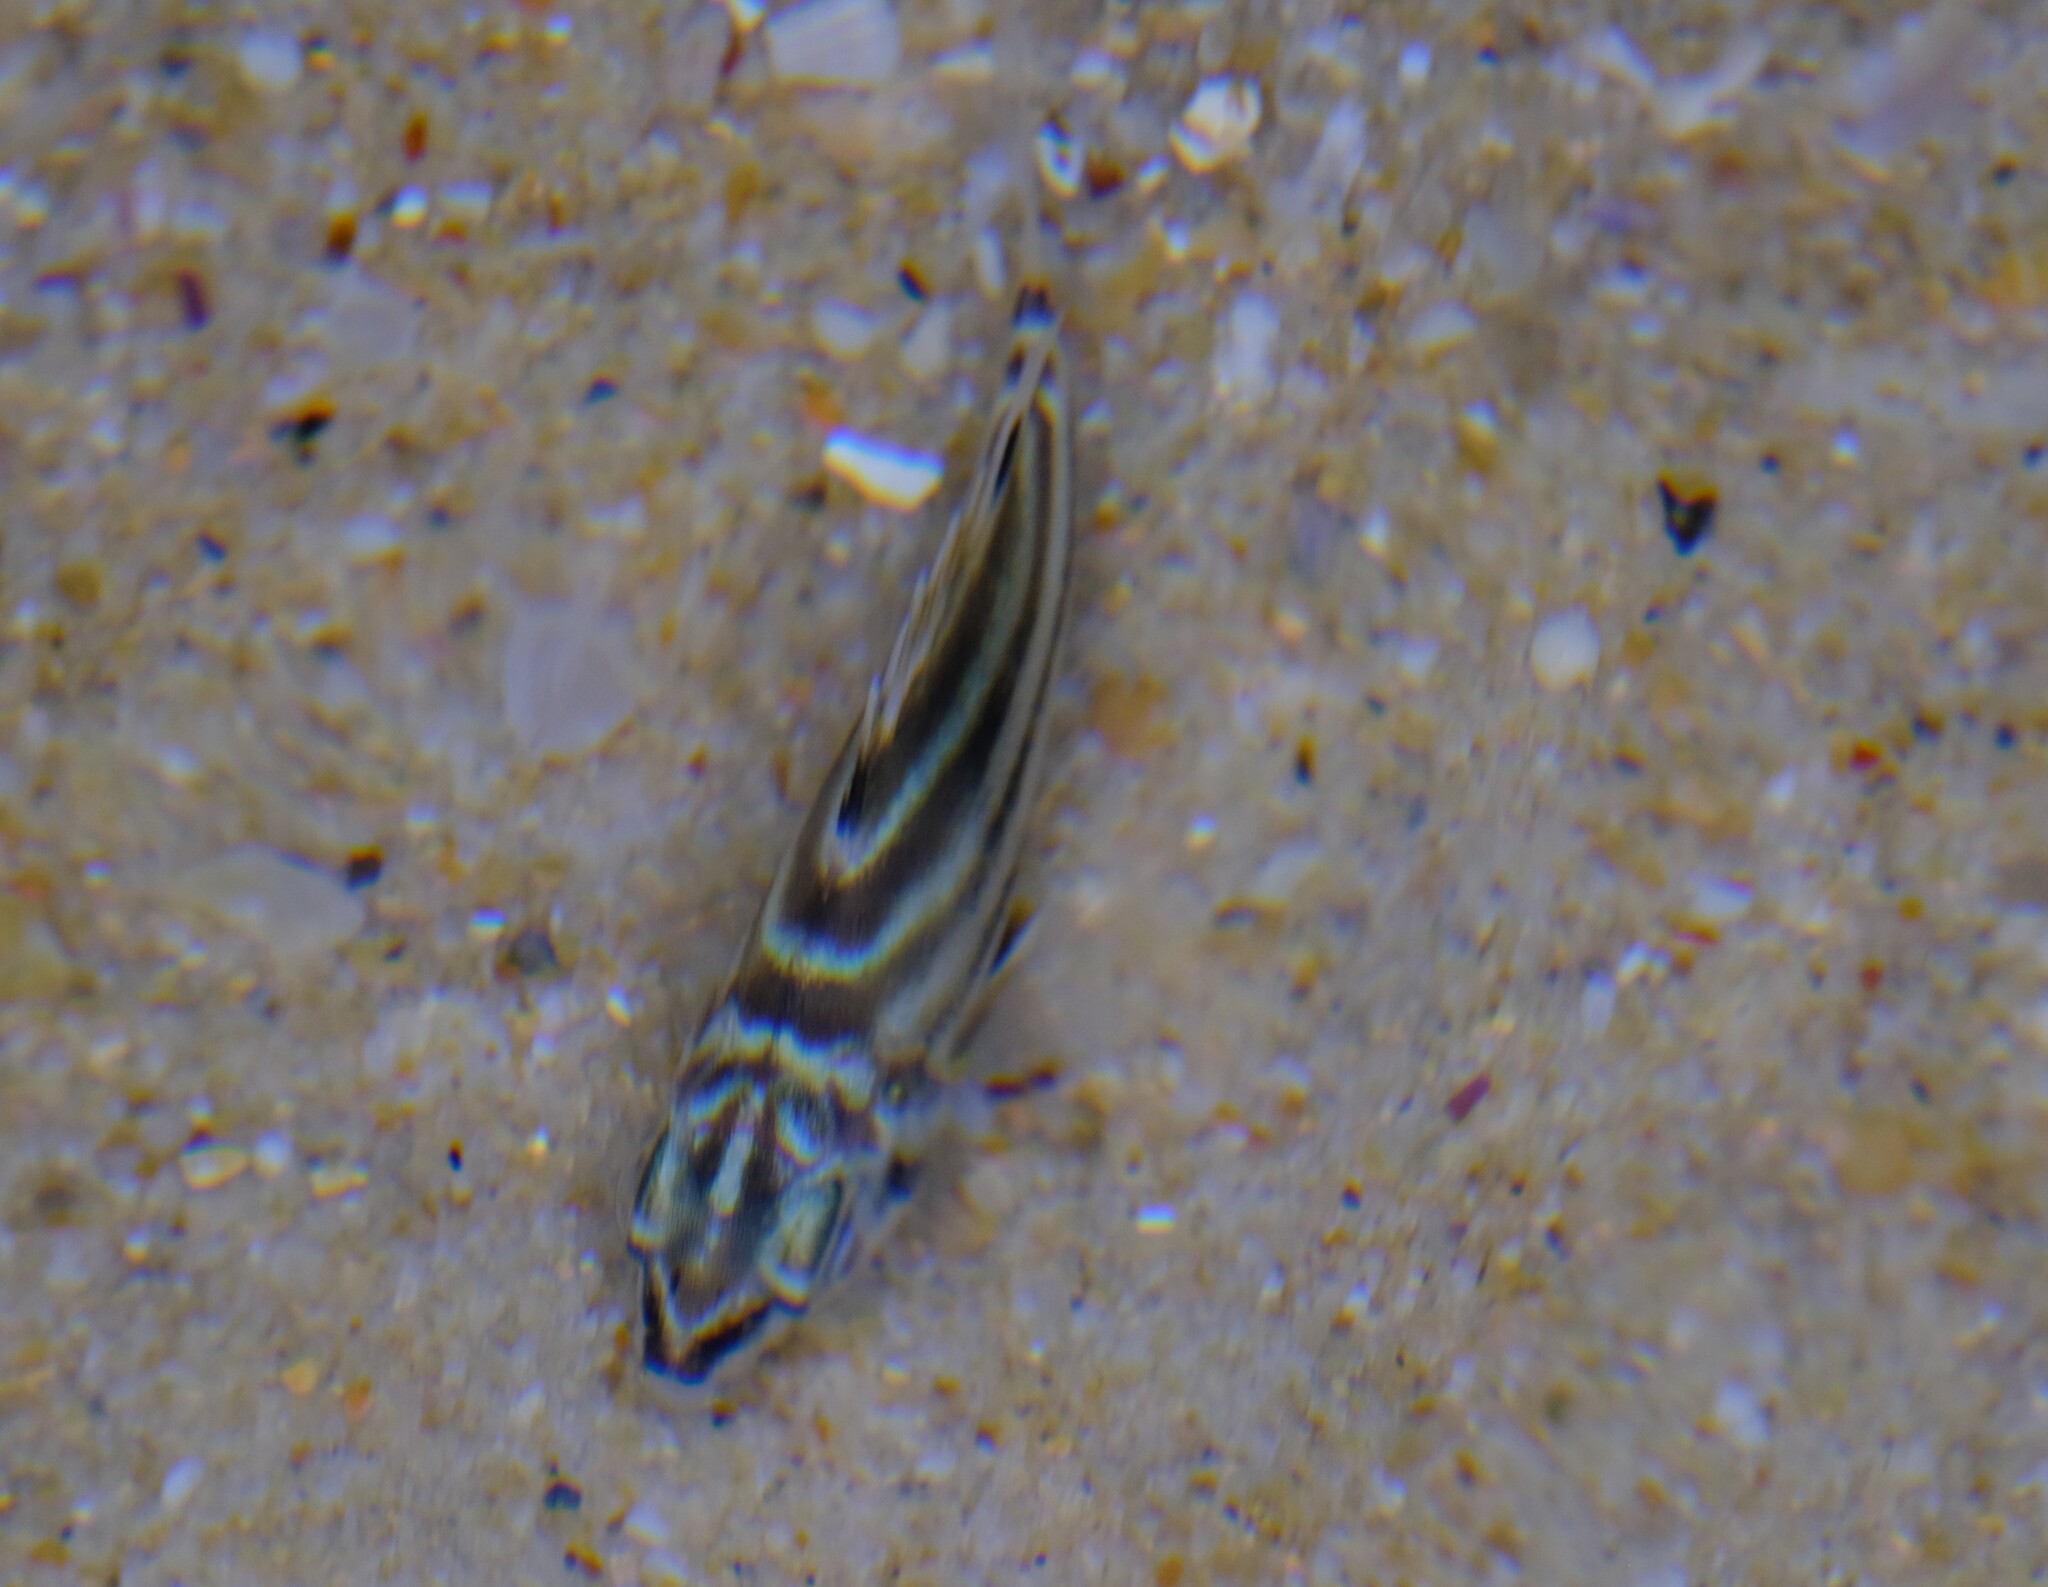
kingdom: Animalia
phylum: Chordata
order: Perciformes
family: Kyphosidae
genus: Microcanthus
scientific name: Microcanthus joyceae
